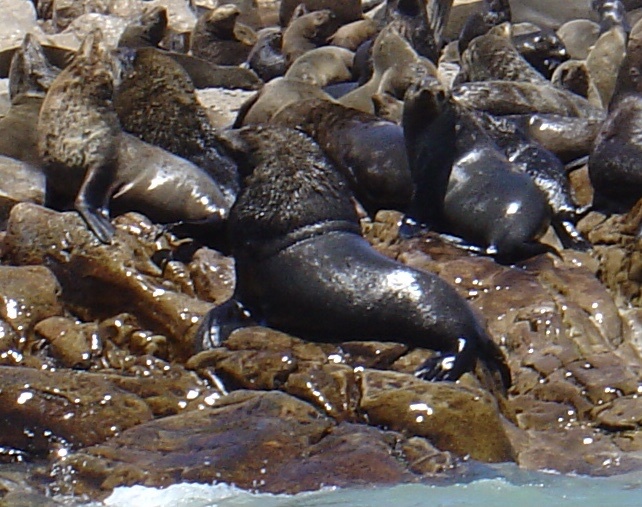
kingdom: Animalia
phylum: Chordata
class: Mammalia
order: Carnivora
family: Otariidae
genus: Arctocephalus
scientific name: Arctocephalus pusillus
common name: Brown fur seal
